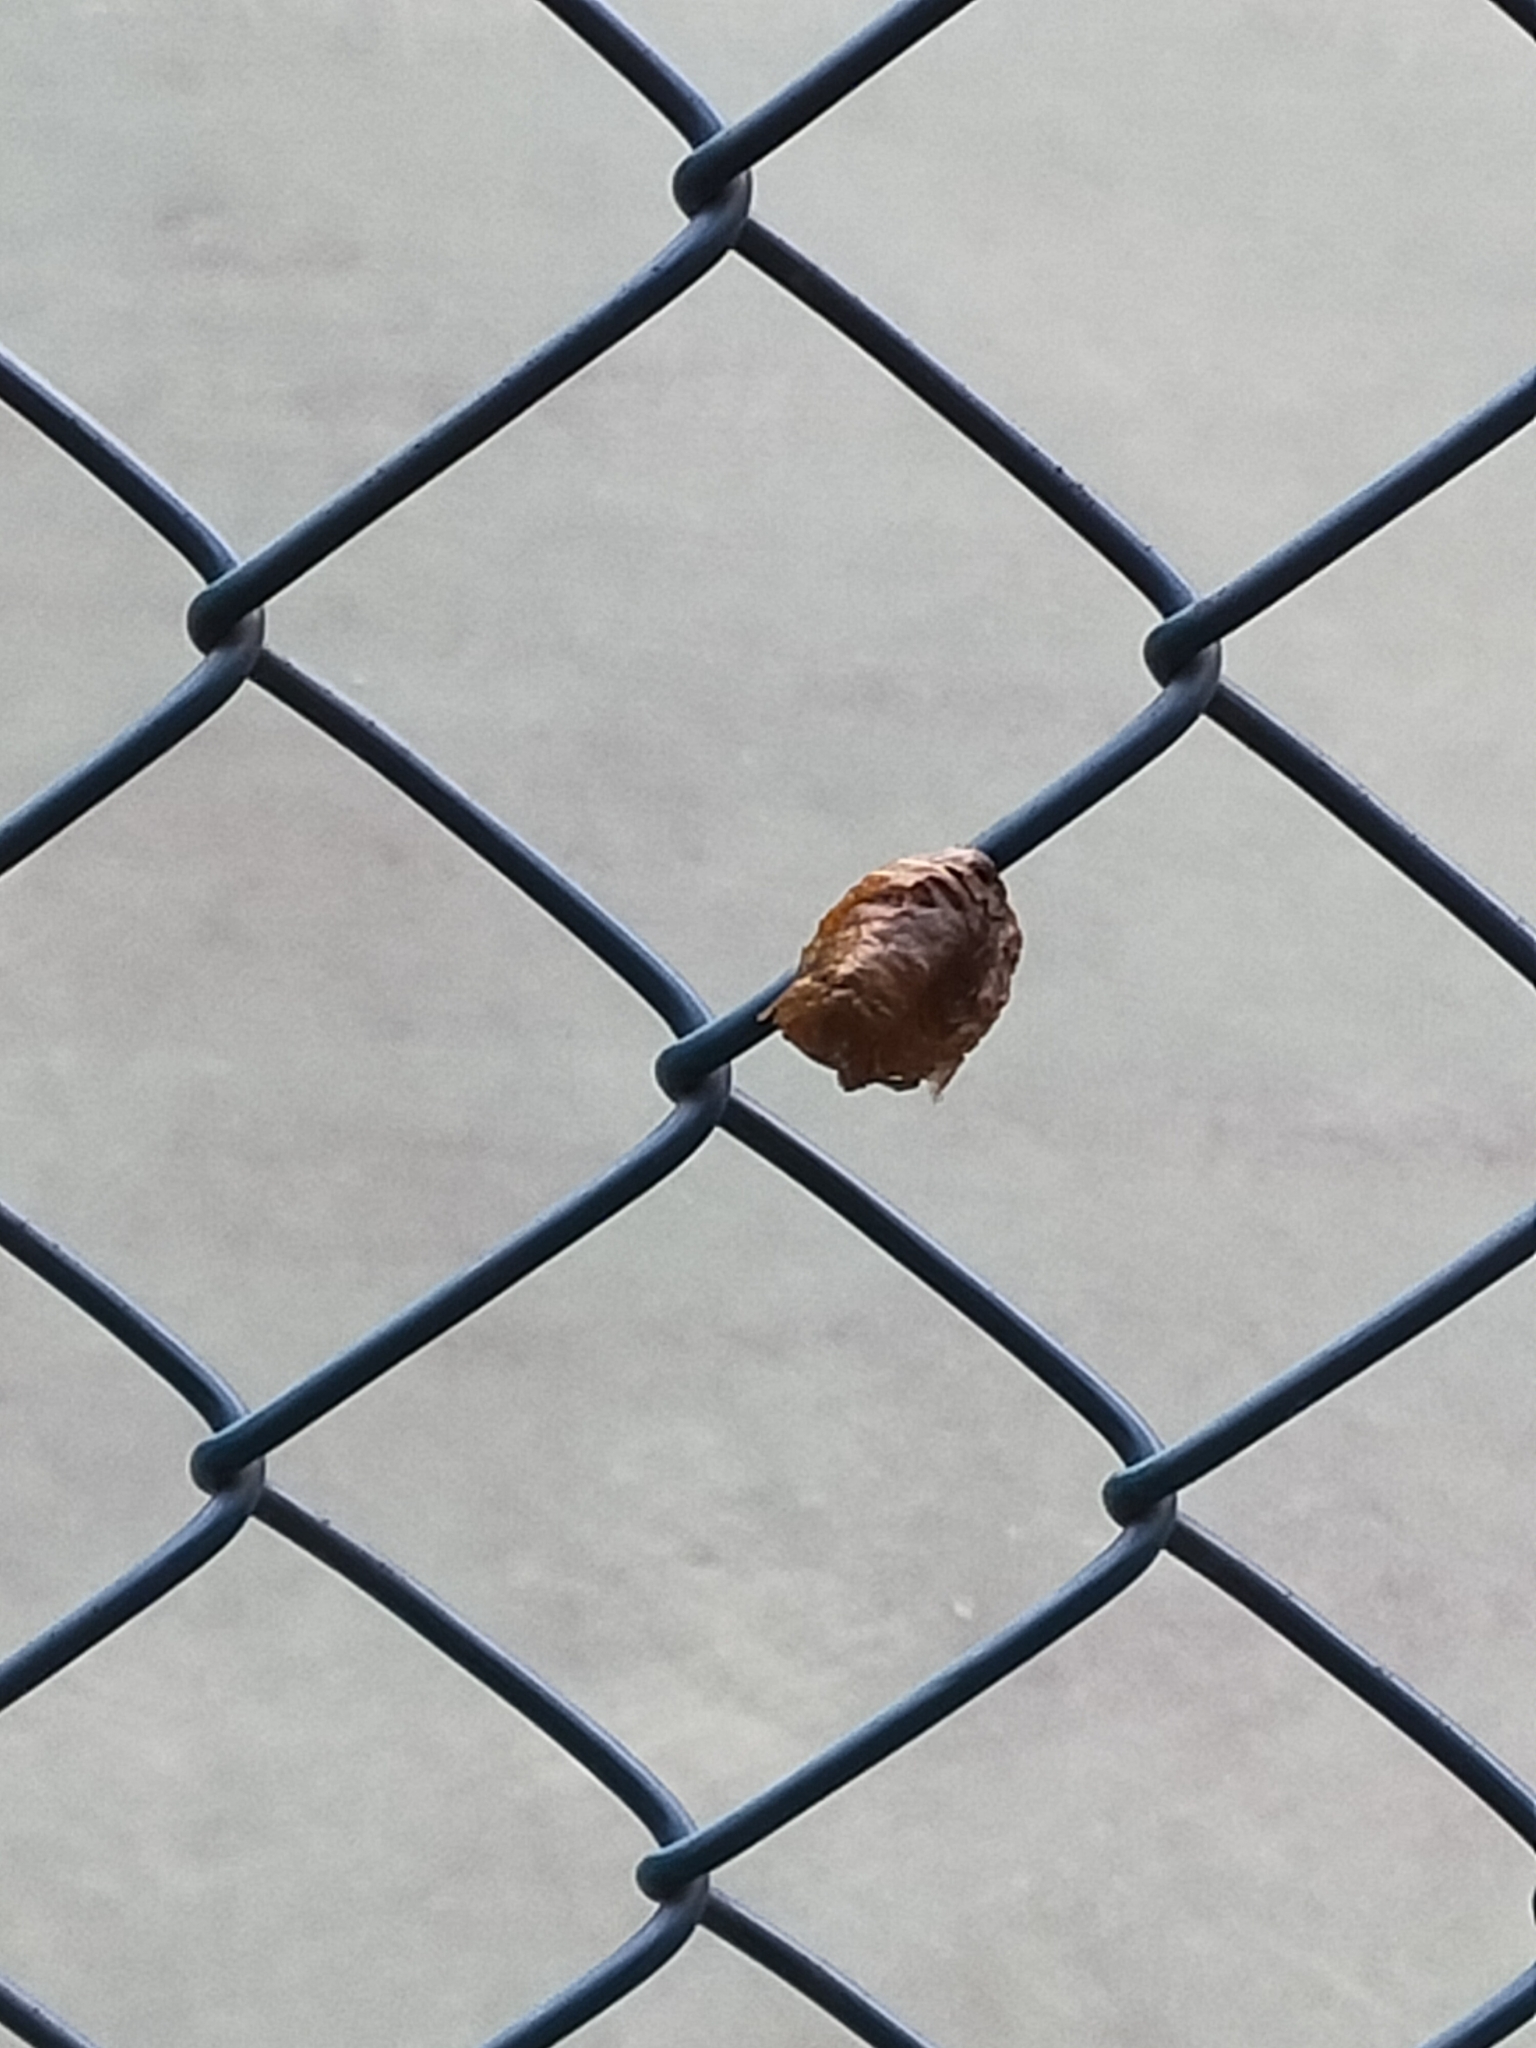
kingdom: Animalia
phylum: Arthropoda
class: Insecta
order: Mantodea
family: Mantidae
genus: Hierodula
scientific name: Hierodula transcaucasica
